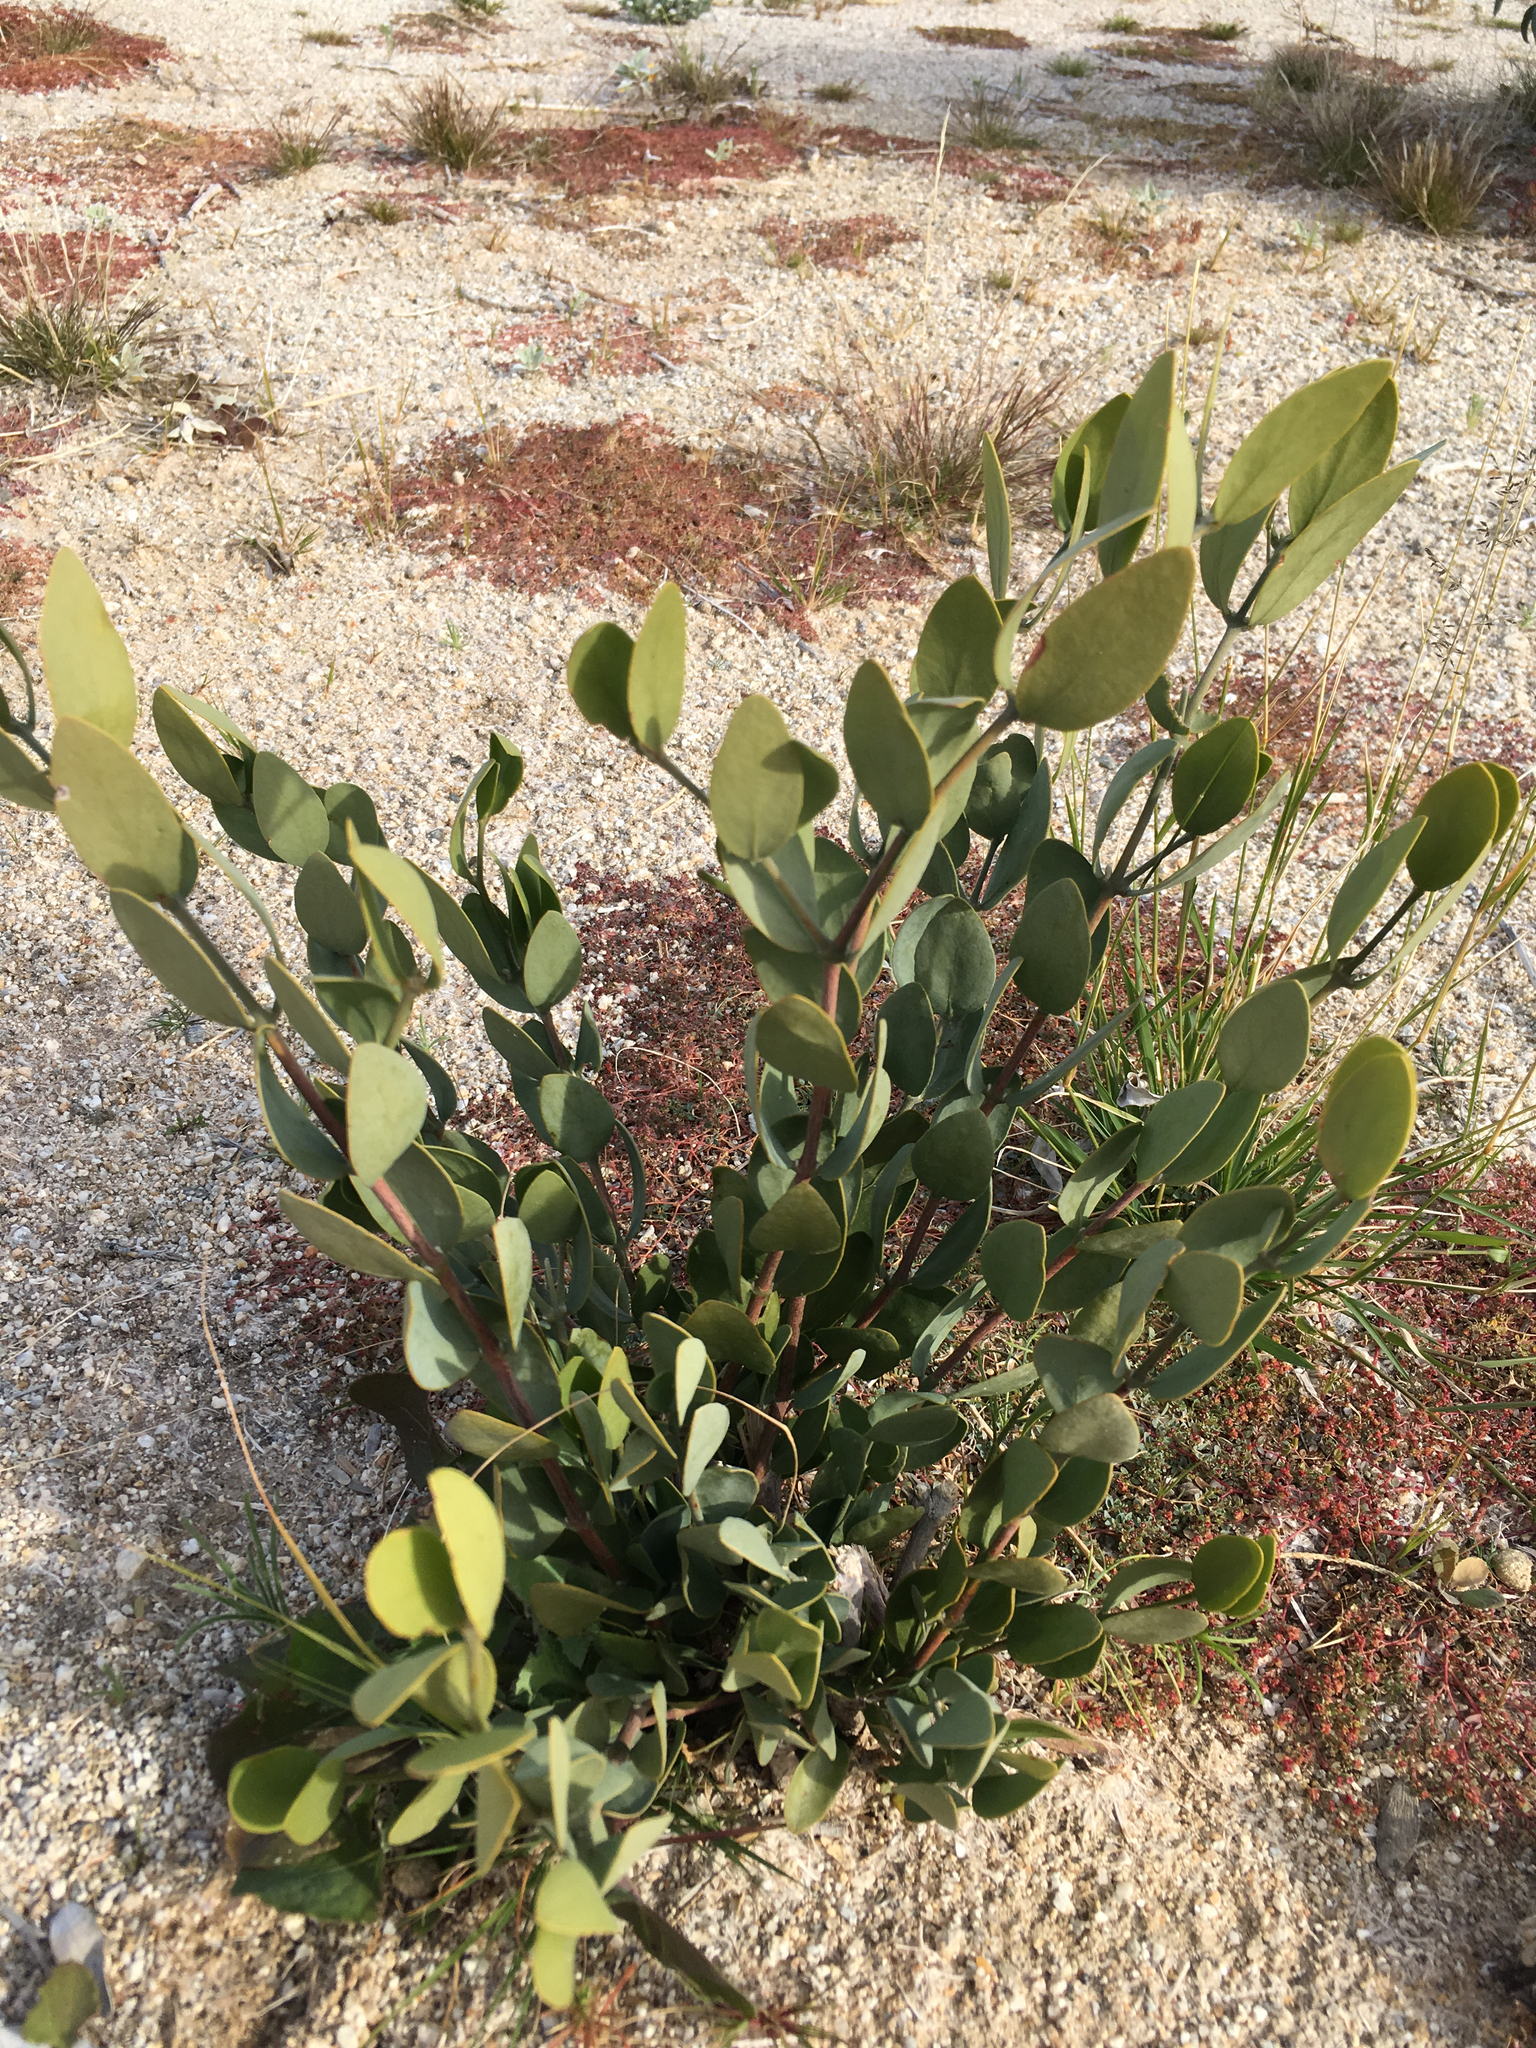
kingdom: Plantae
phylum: Tracheophyta
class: Magnoliopsida
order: Caryophyllales
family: Simmondsiaceae
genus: Simmondsia
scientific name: Simmondsia chinensis
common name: Jojoba
